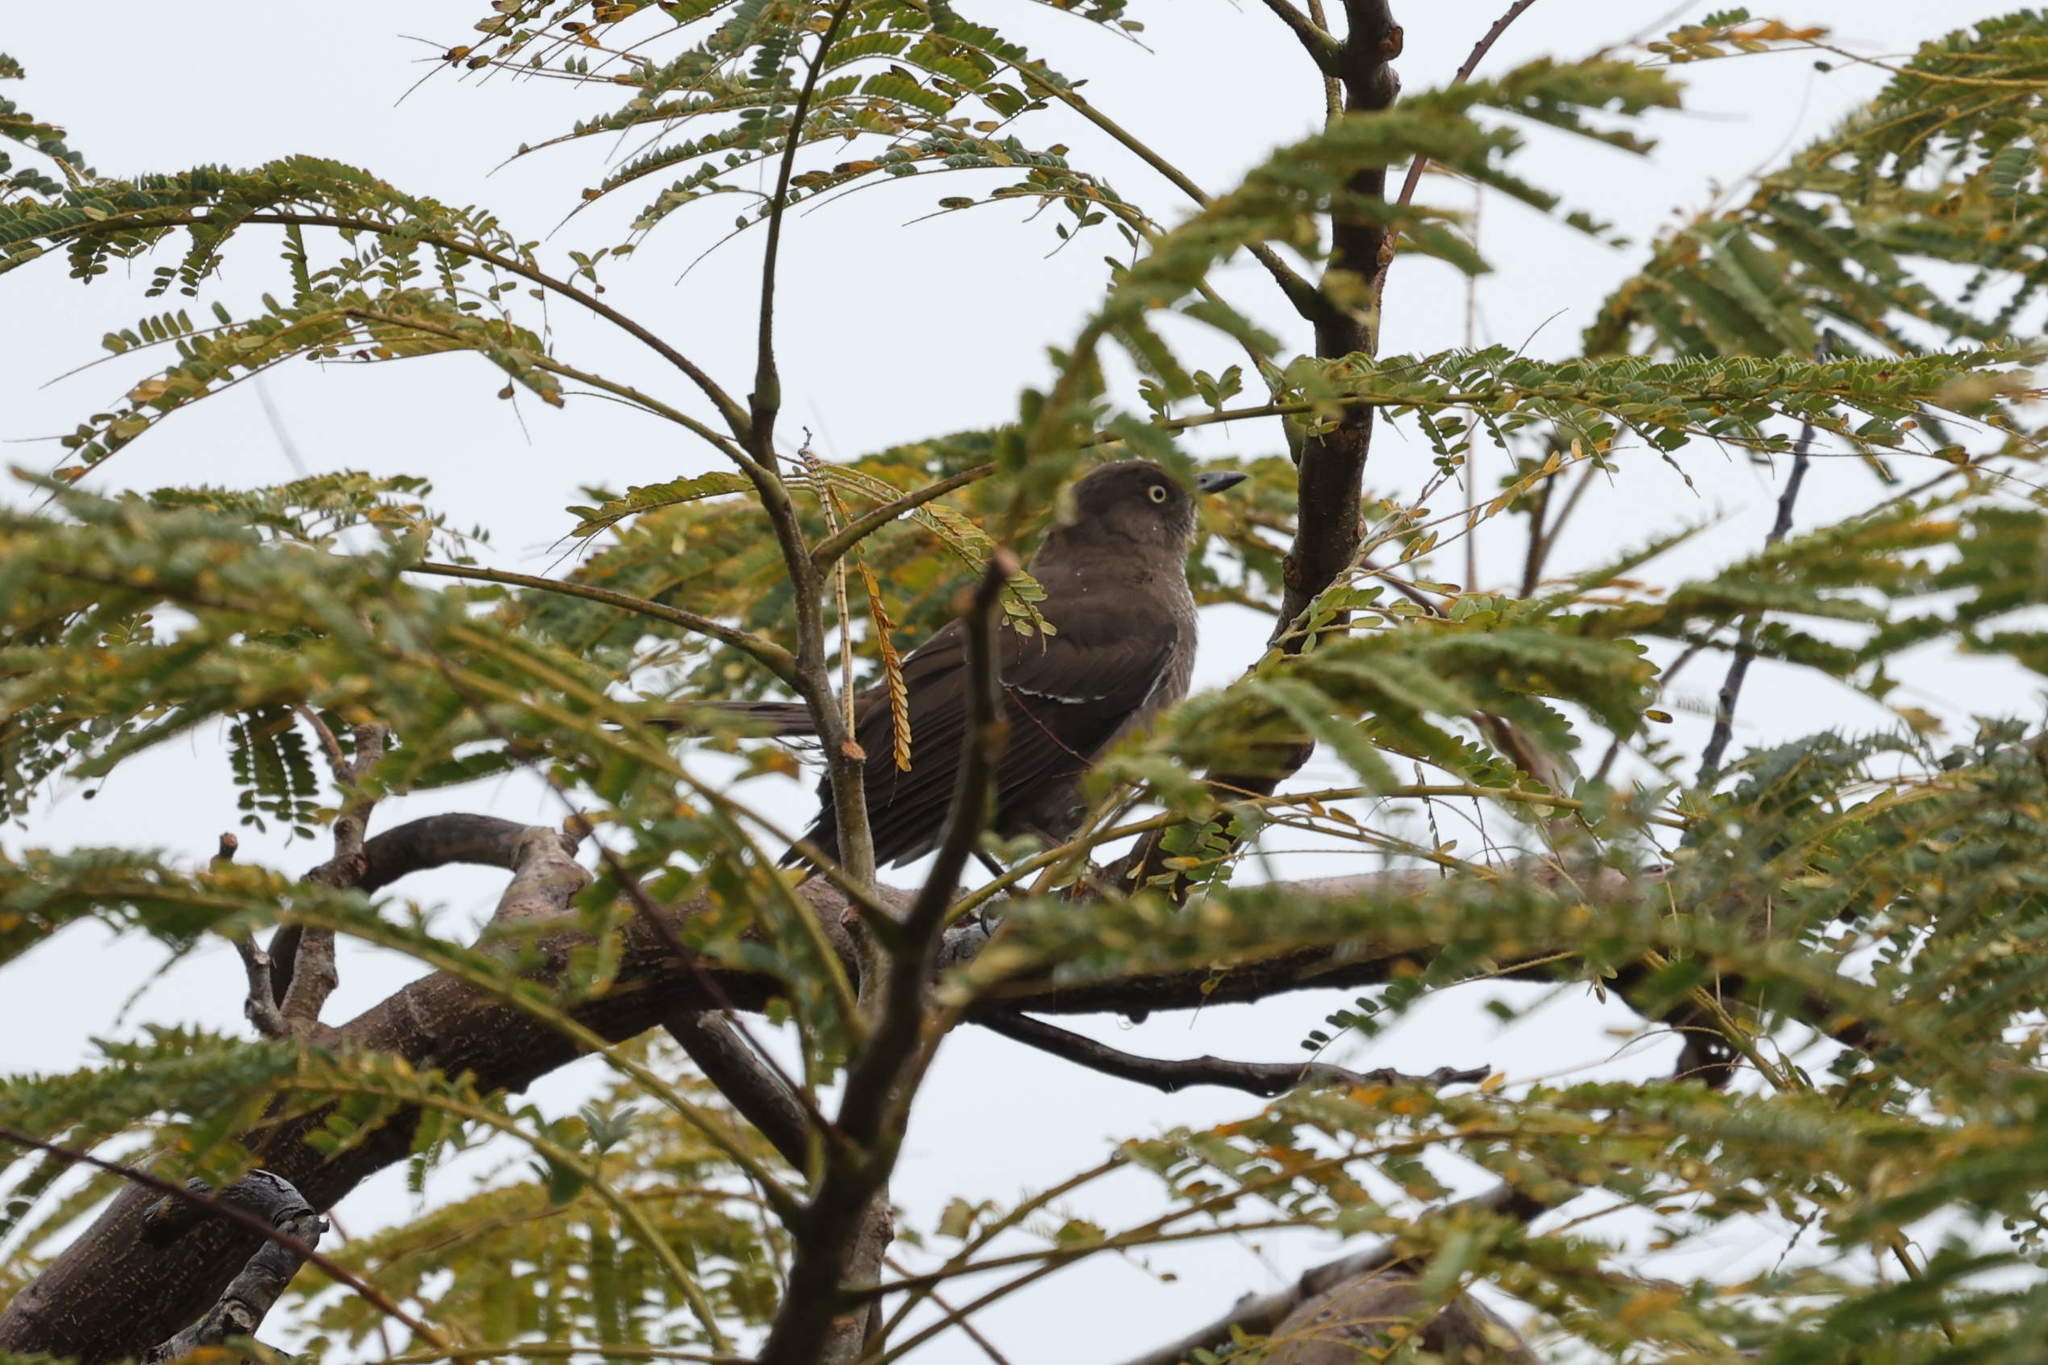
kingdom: Animalia
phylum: Chordata
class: Aves
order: Passeriformes
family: Mimidae
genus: Allenia
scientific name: Allenia fusca
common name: Scaly-breasted thrasher
